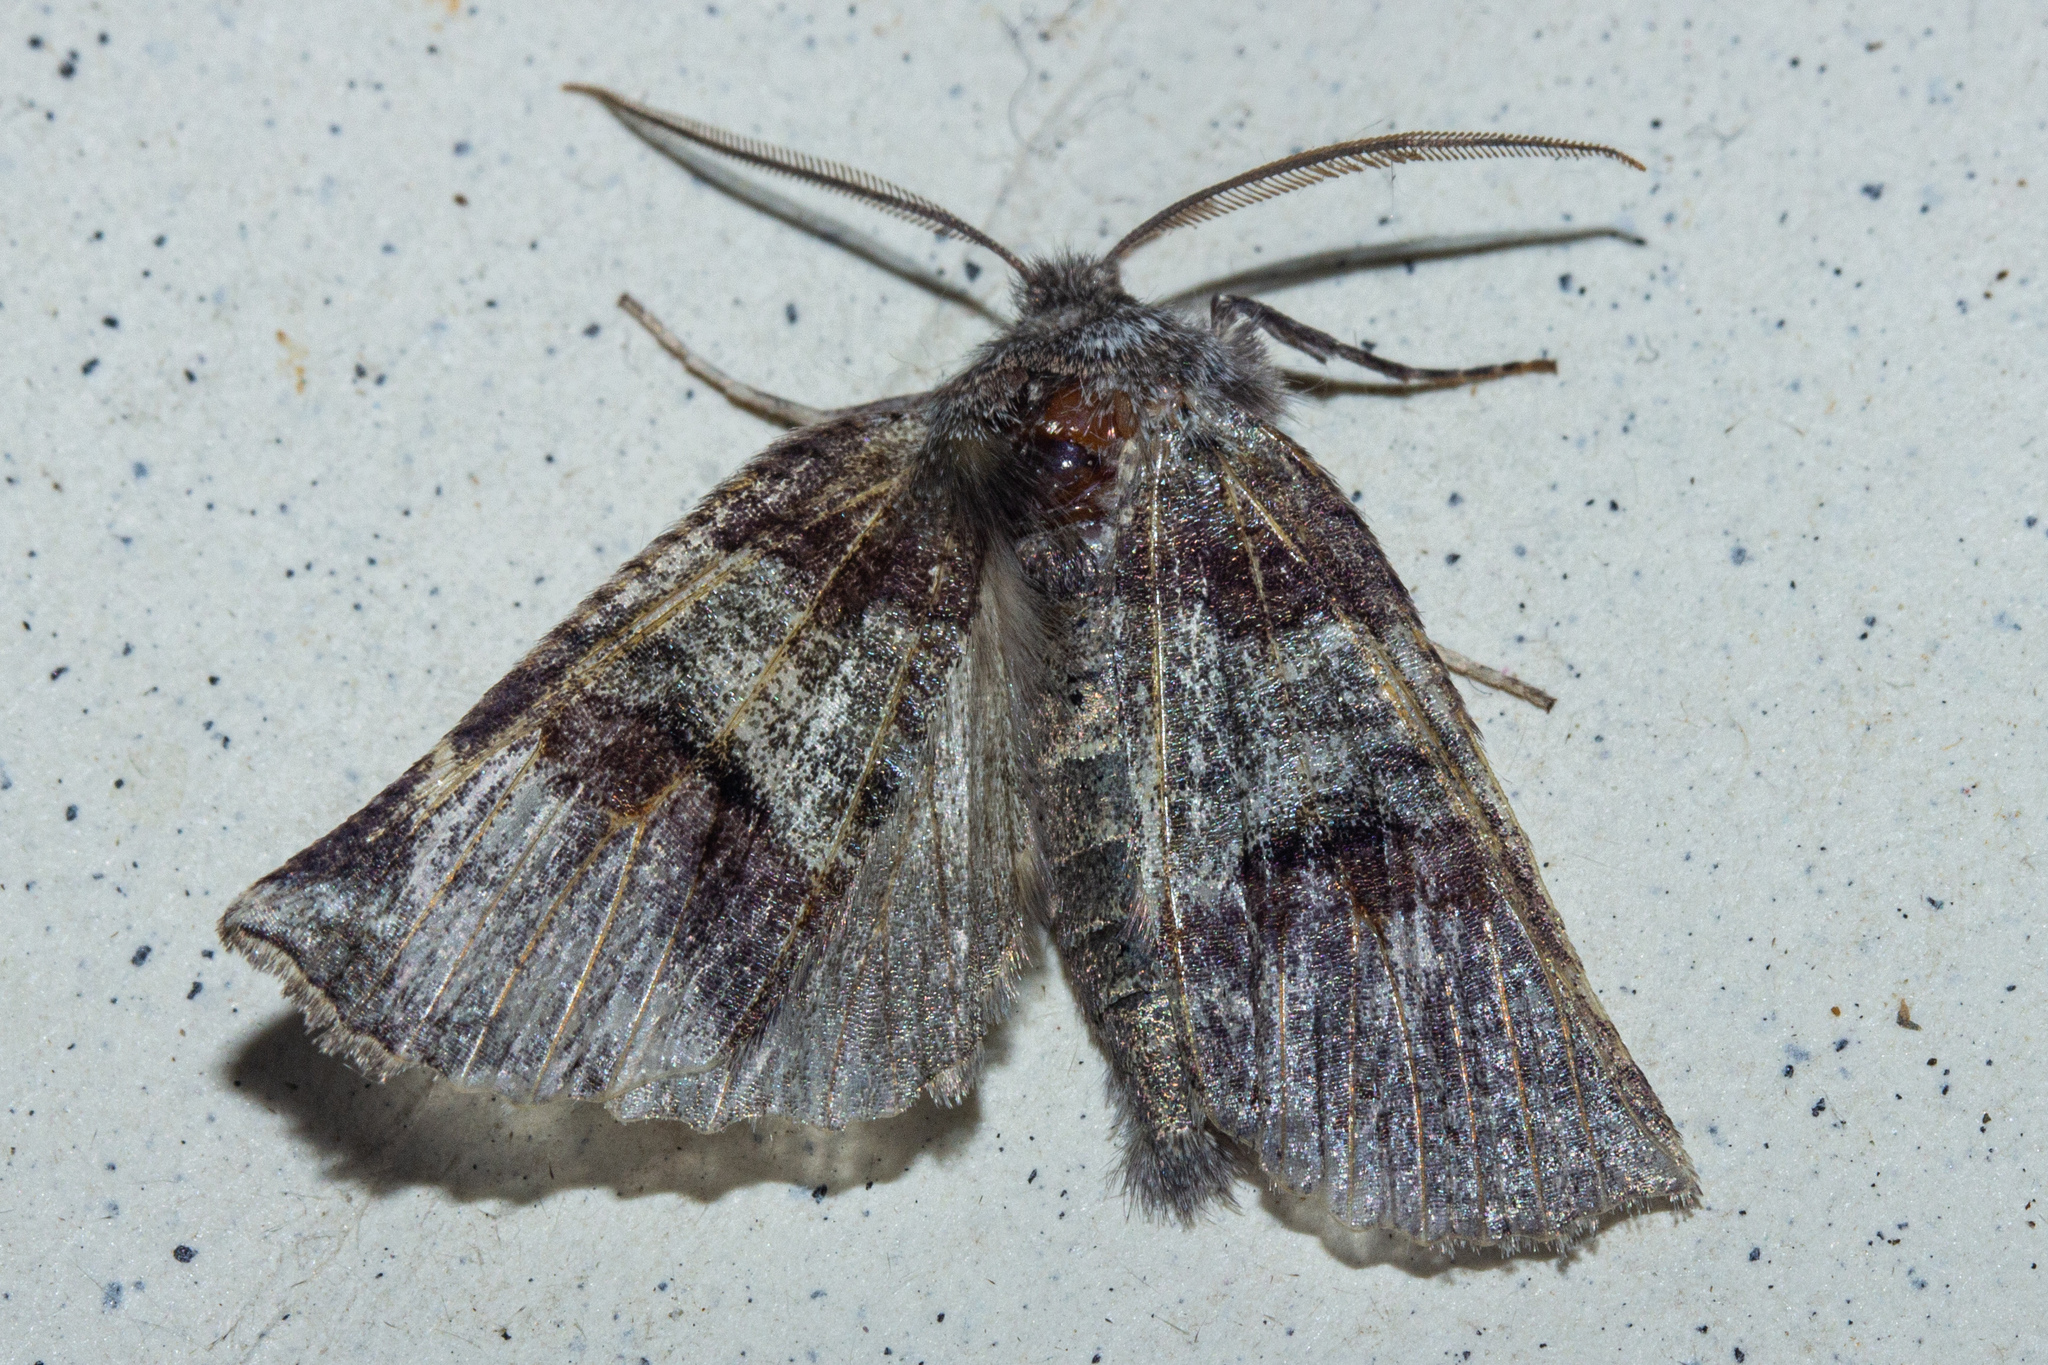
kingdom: Animalia
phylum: Arthropoda
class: Insecta
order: Lepidoptera
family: Geometridae
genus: Declana
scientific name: Declana
